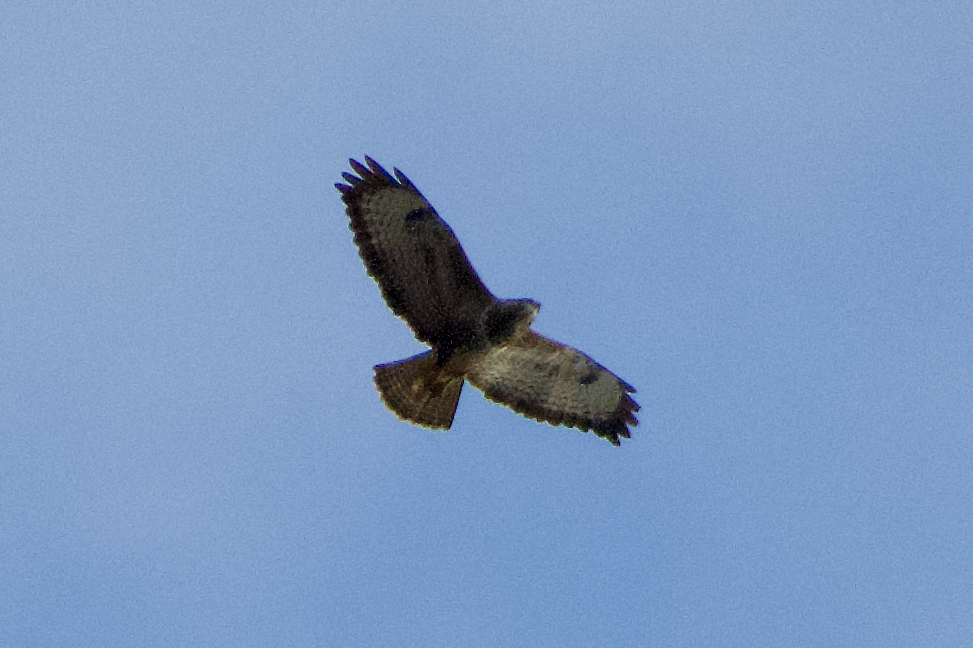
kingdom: Animalia
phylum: Chordata
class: Aves
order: Accipitriformes
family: Accipitridae
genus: Buteo
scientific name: Buteo buteo
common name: Common buzzard
